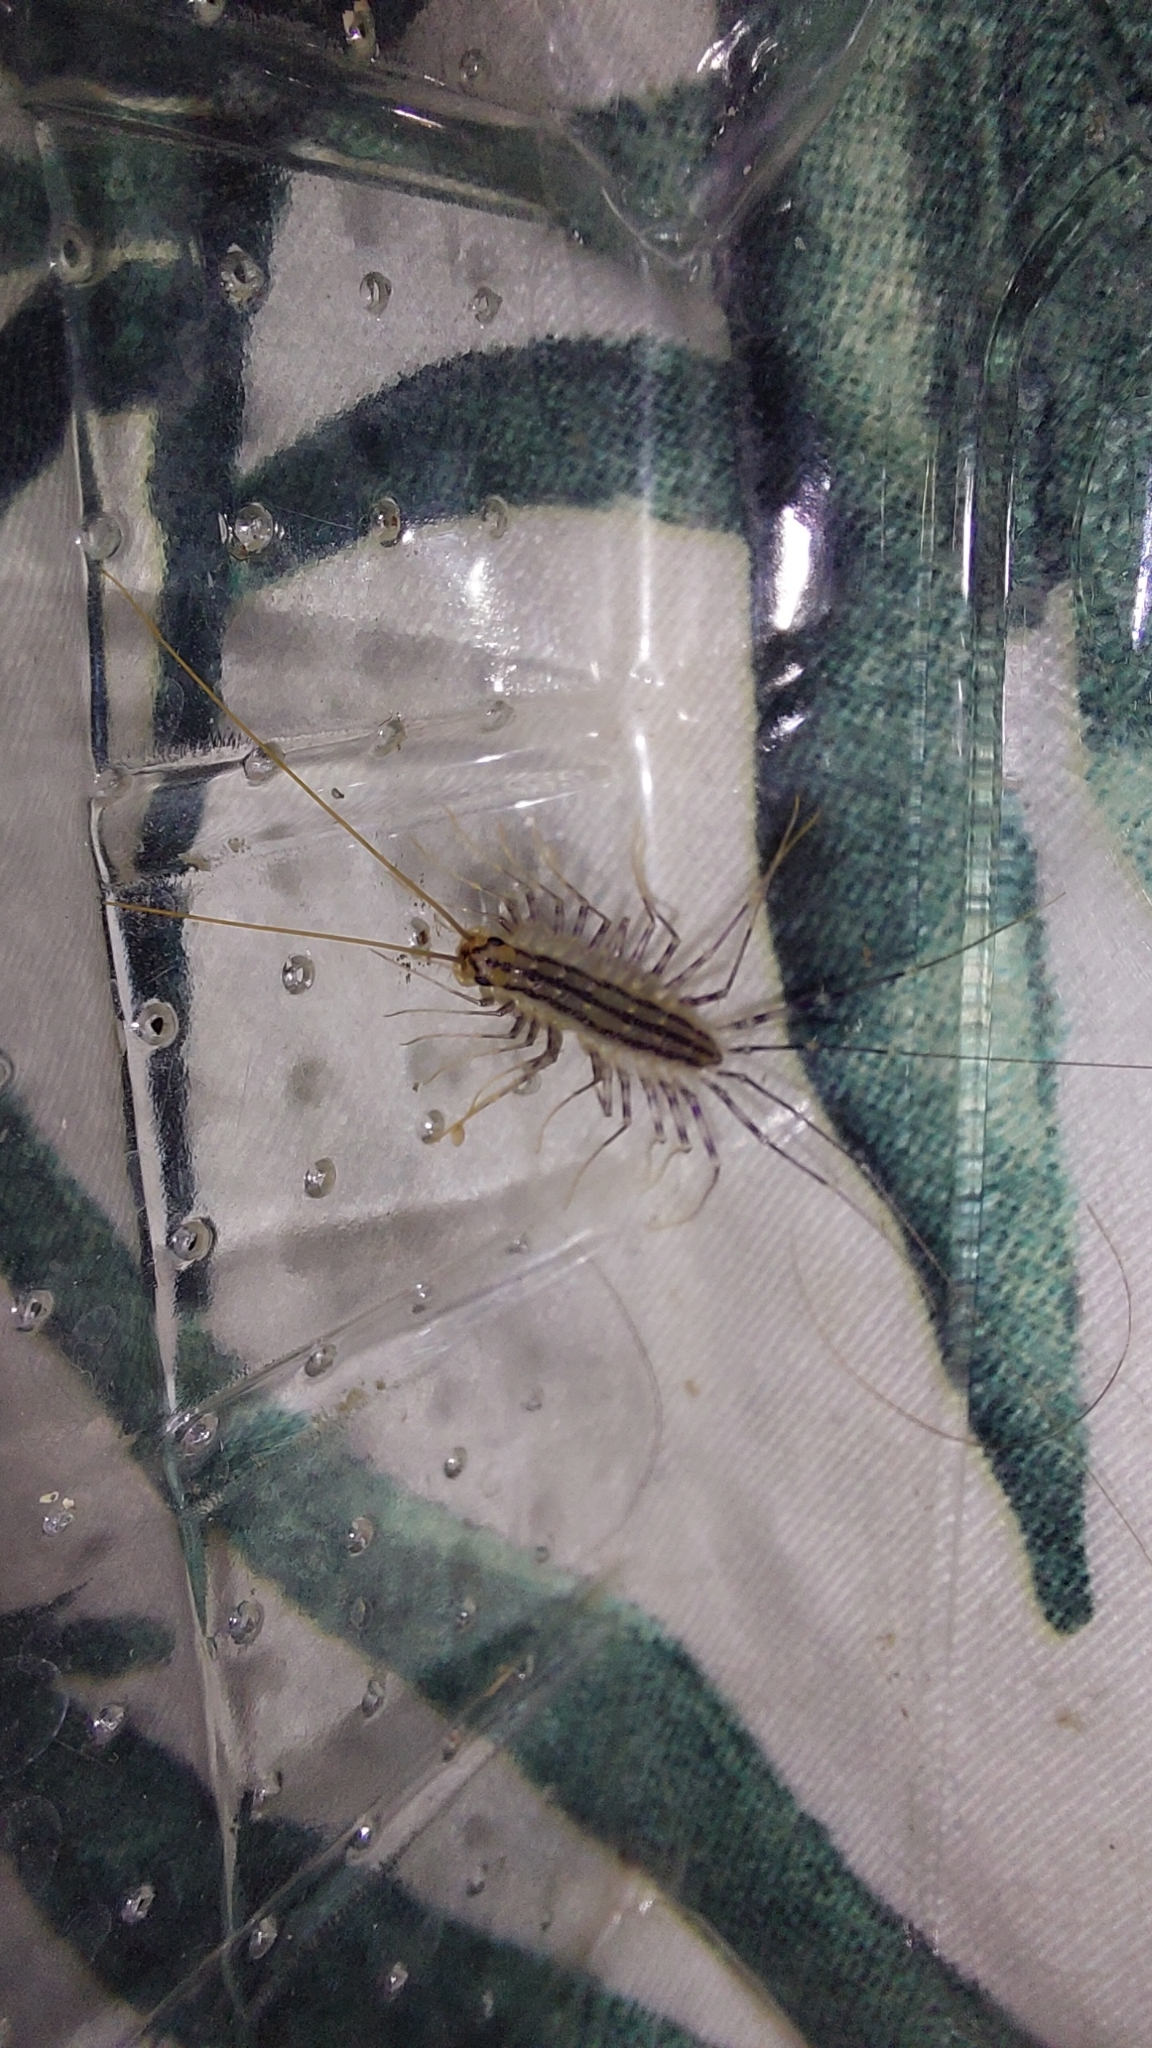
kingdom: Animalia
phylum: Arthropoda
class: Chilopoda
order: Scutigeromorpha
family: Scutigeridae
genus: Scutigera
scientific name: Scutigera coleoptrata
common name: House centipede
